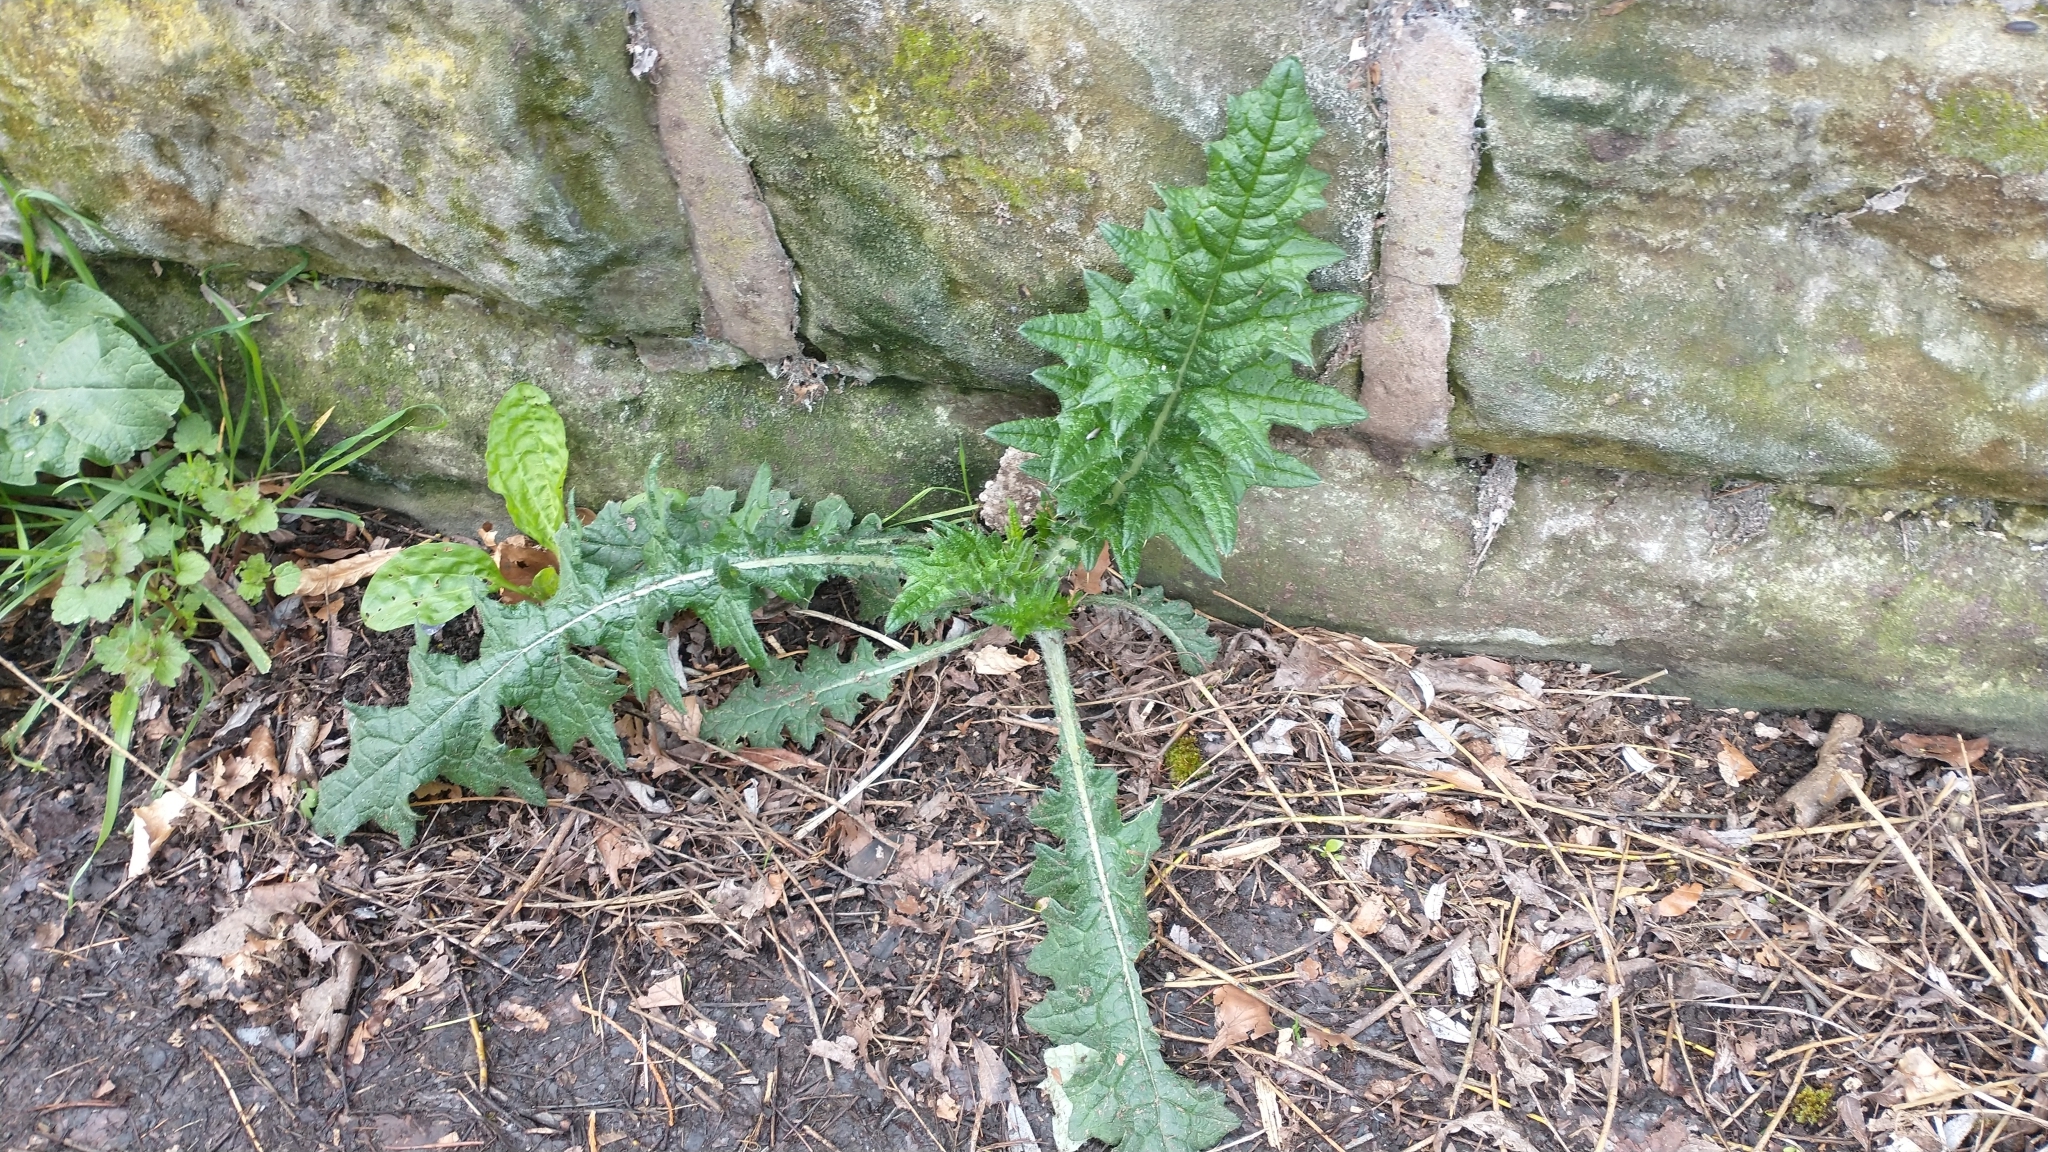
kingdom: Plantae
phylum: Tracheophyta
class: Magnoliopsida
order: Asterales
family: Asteraceae
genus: Cirsium
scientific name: Cirsium vulgare
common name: Bull thistle
